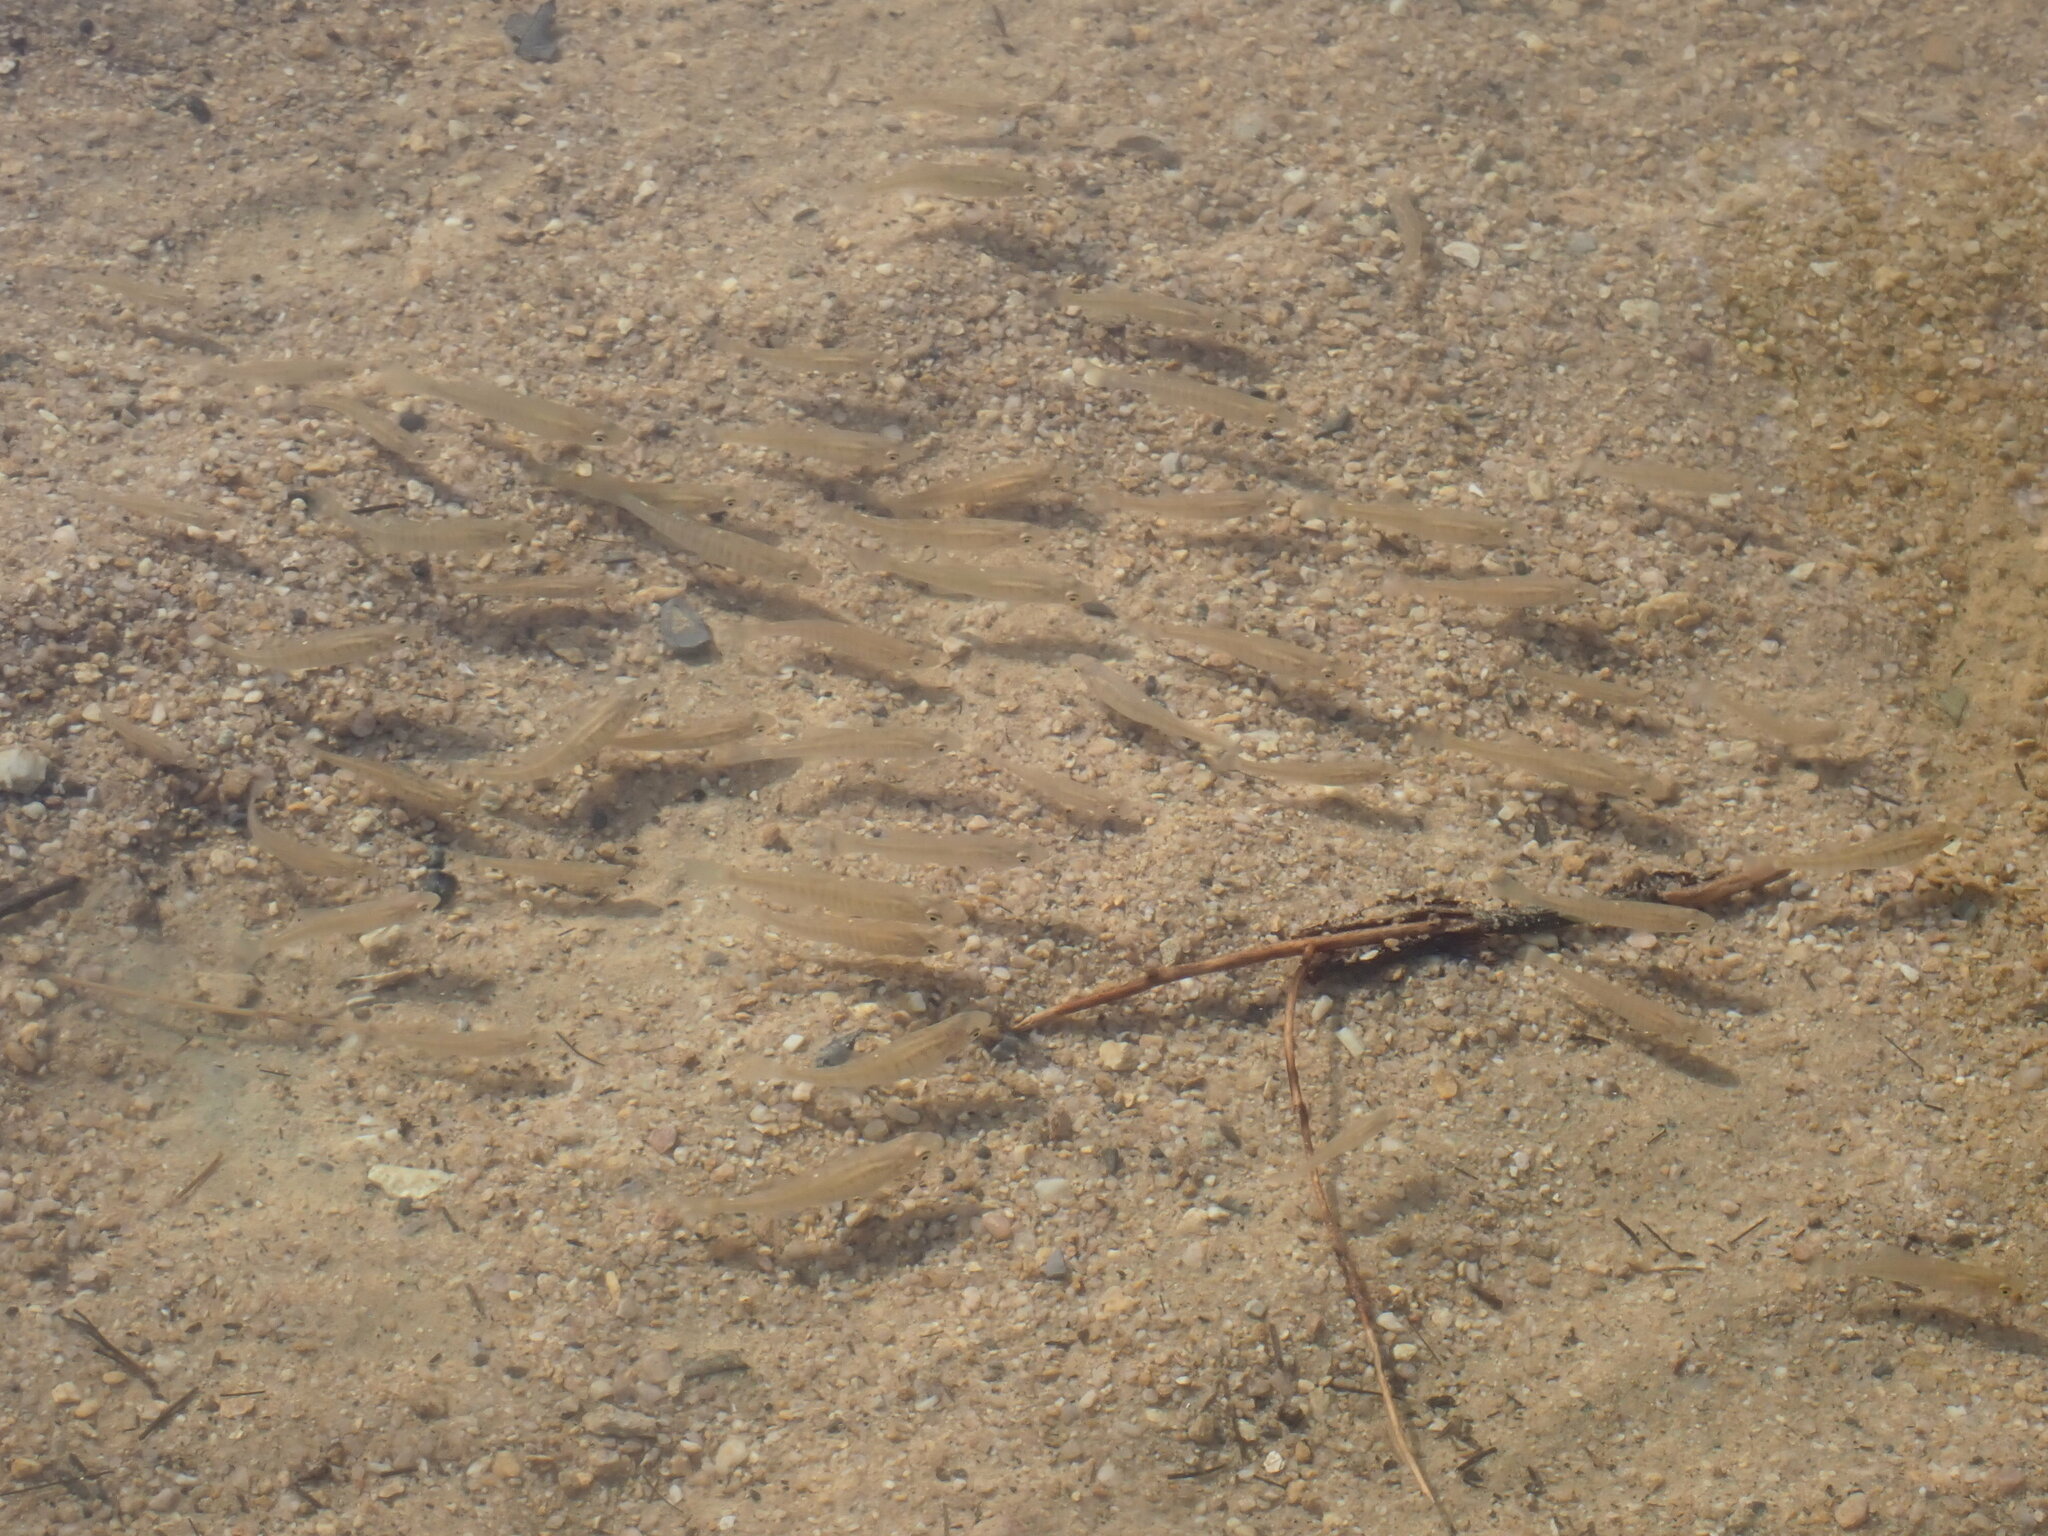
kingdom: Animalia
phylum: Chordata
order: Cyprinodontiformes
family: Fundulidae
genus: Fundulus
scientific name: Fundulus diaphanus
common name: Banded killifish
